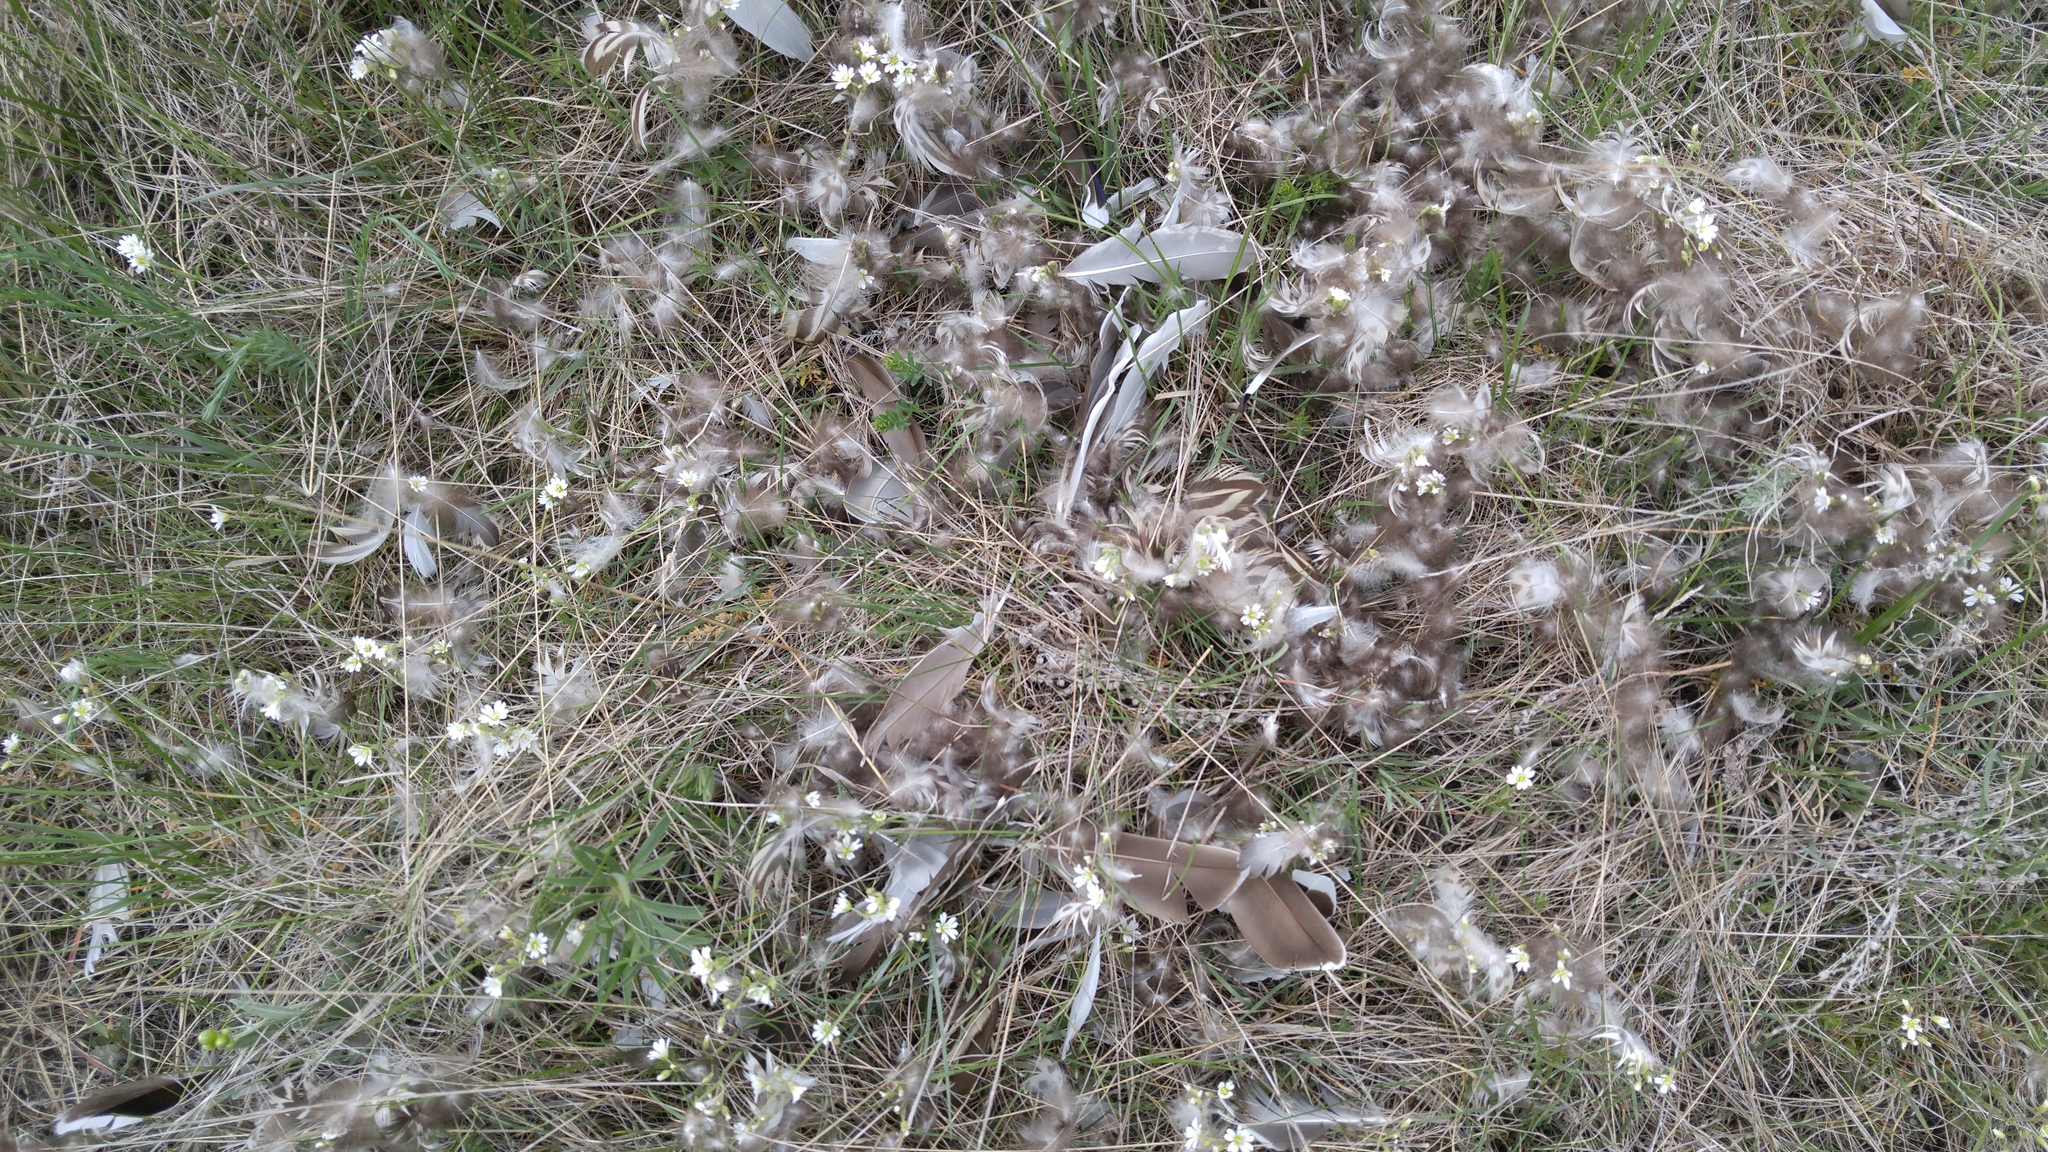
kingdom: Animalia
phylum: Chordata
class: Aves
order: Anseriformes
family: Anatidae
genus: Anas
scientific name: Anas platyrhynchos
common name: Mallard
